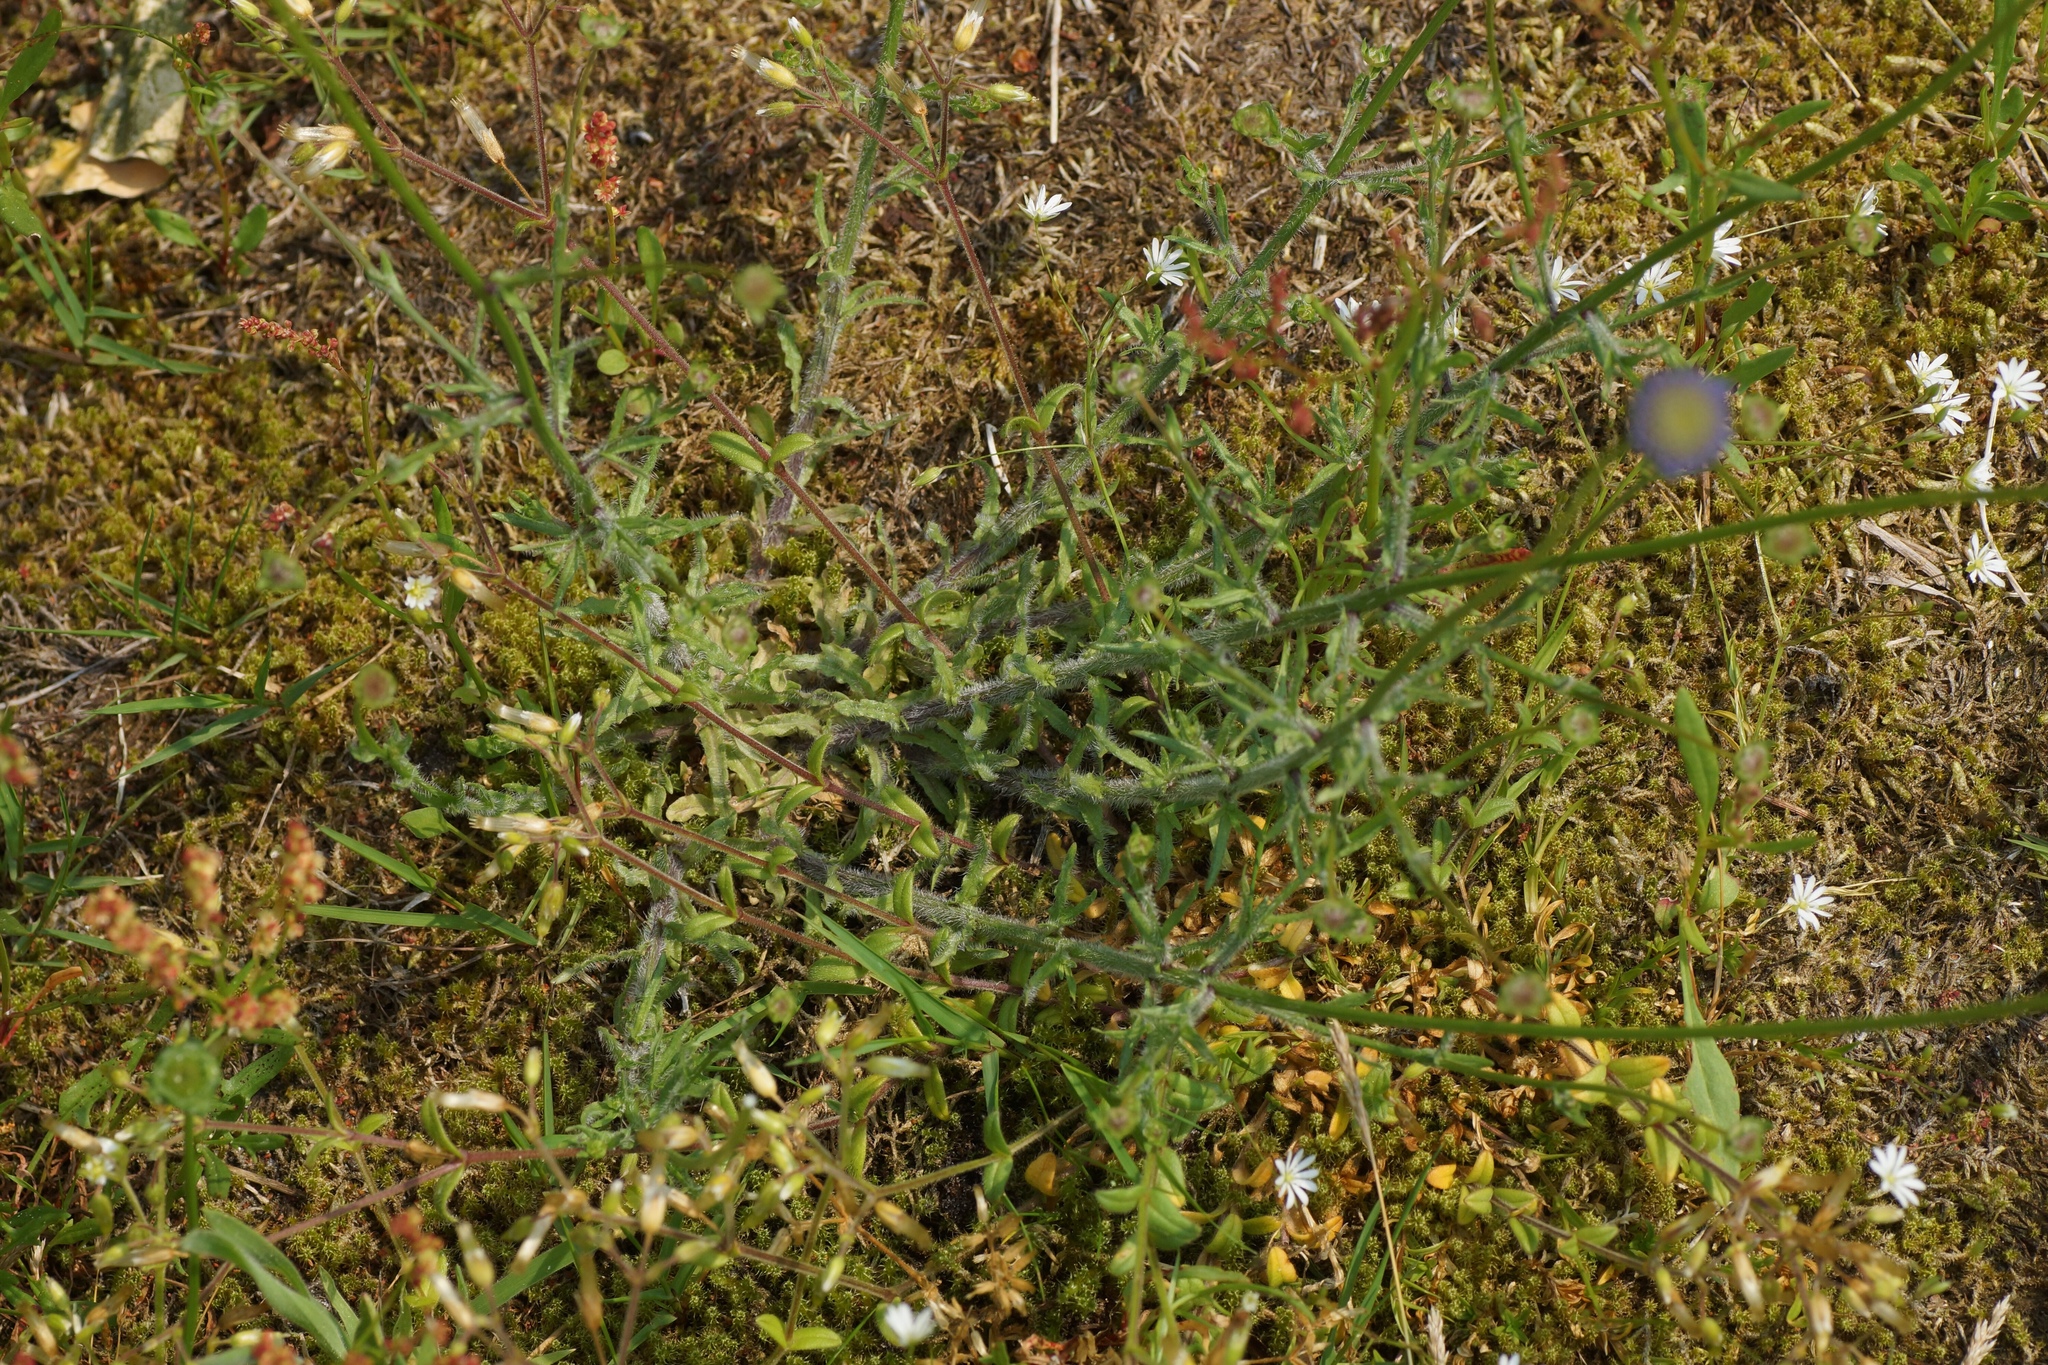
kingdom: Plantae
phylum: Tracheophyta
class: Magnoliopsida
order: Asterales
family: Campanulaceae
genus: Jasione
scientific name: Jasione montana
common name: Sheep's-bit
